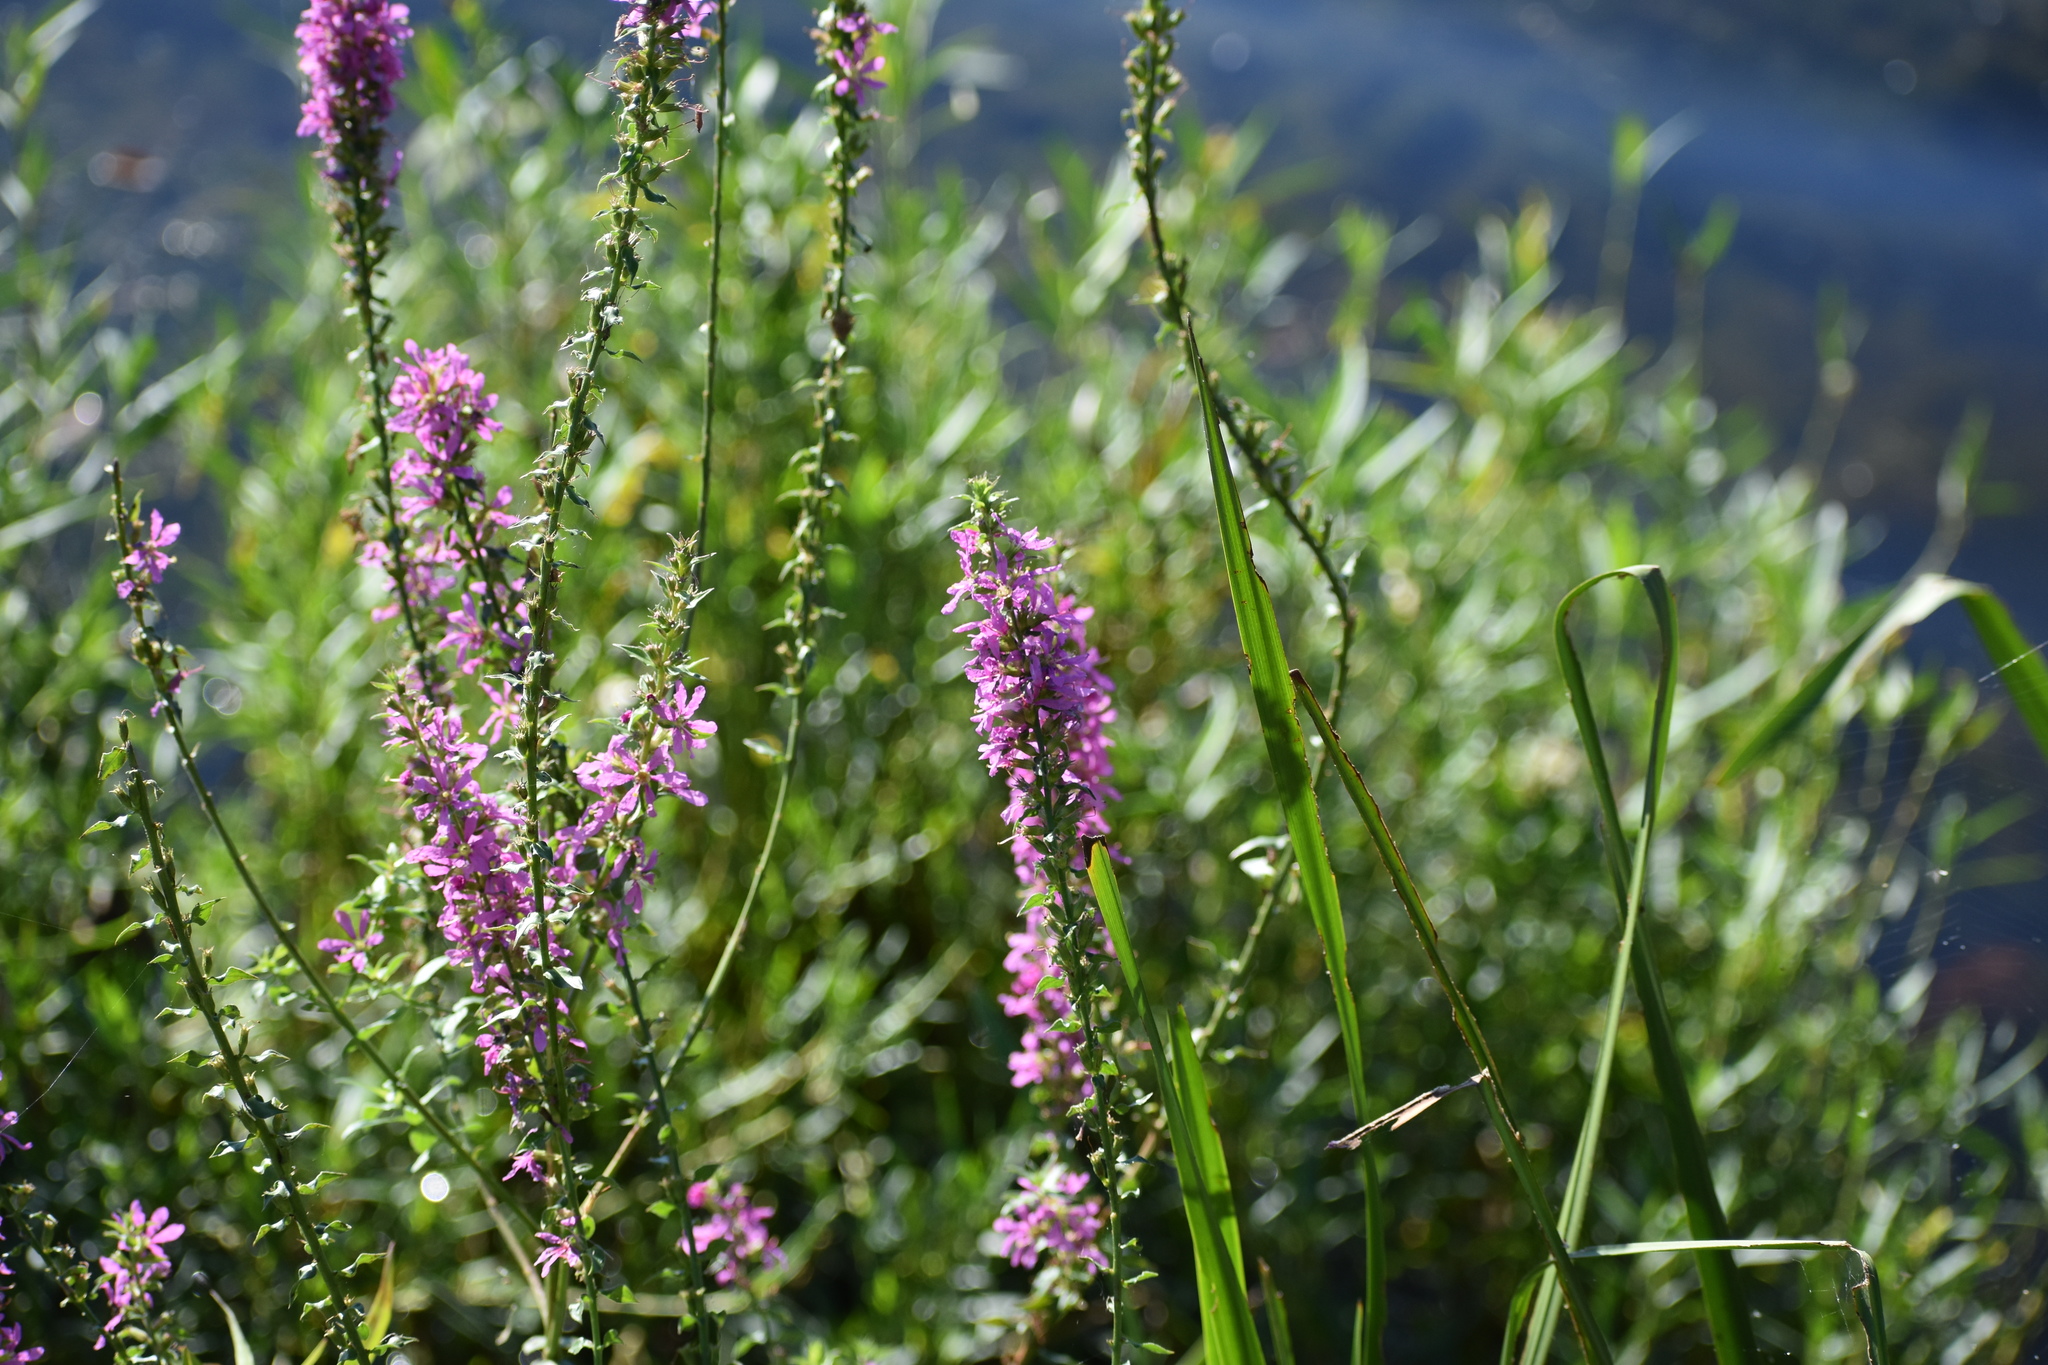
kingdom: Plantae
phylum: Tracheophyta
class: Magnoliopsida
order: Myrtales
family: Lythraceae
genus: Lythrum
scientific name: Lythrum salicaria
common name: Purple loosestrife
